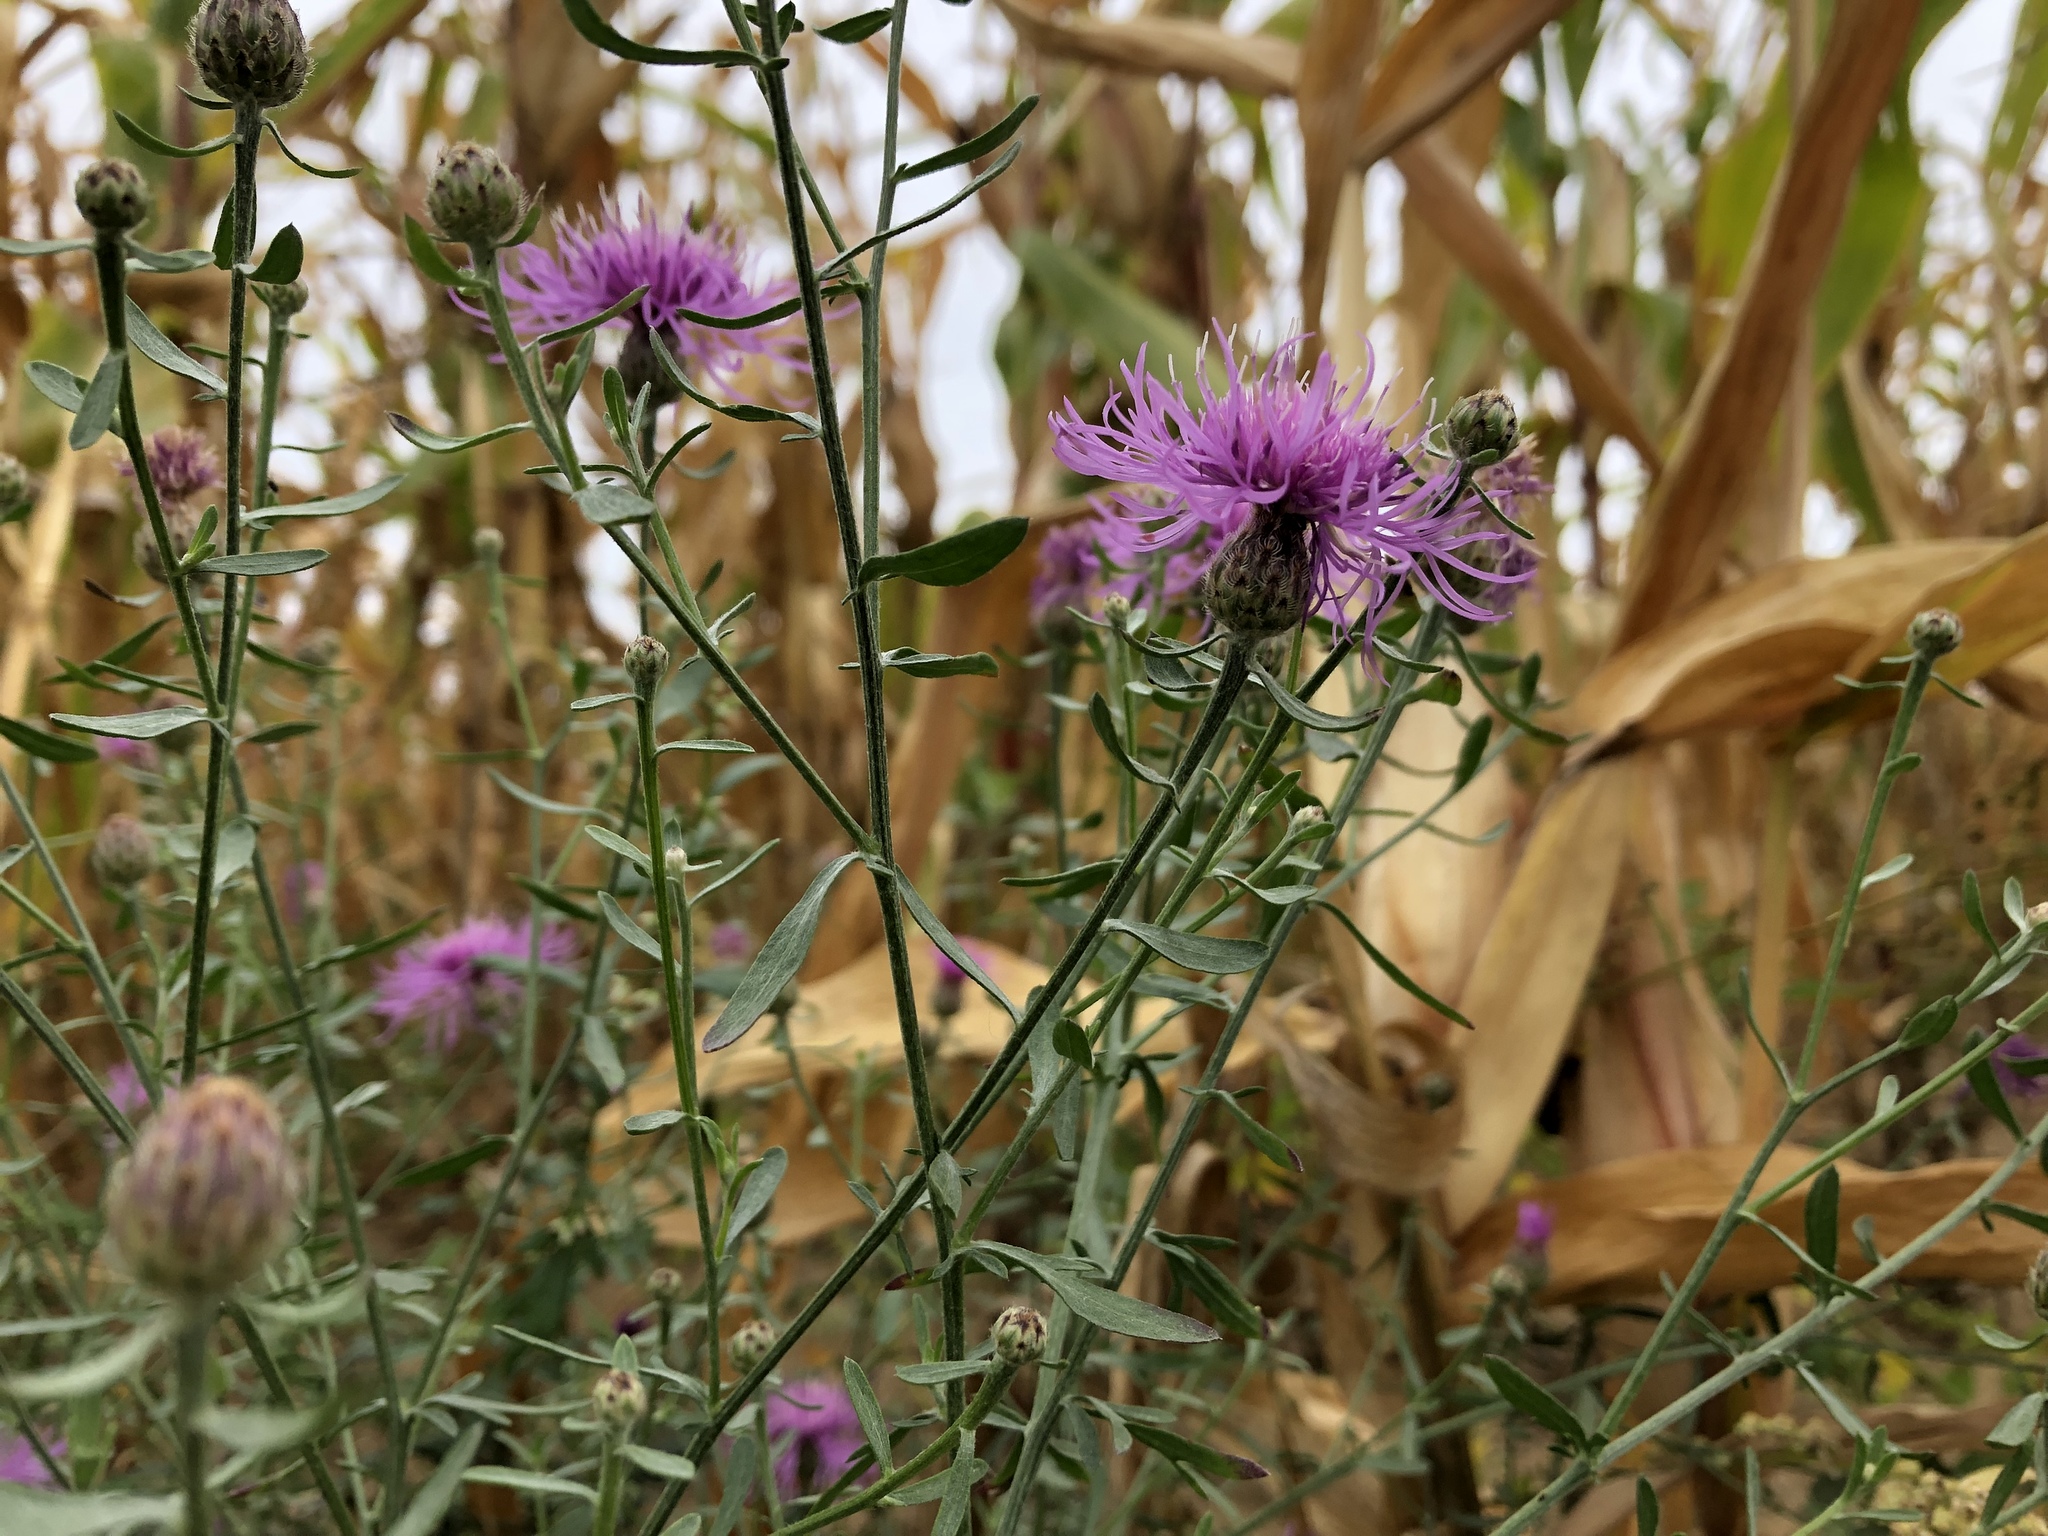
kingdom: Plantae
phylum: Tracheophyta
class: Magnoliopsida
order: Asterales
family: Asteraceae
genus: Centaurea
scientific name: Centaurea stoebe
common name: Spotted knapweed
